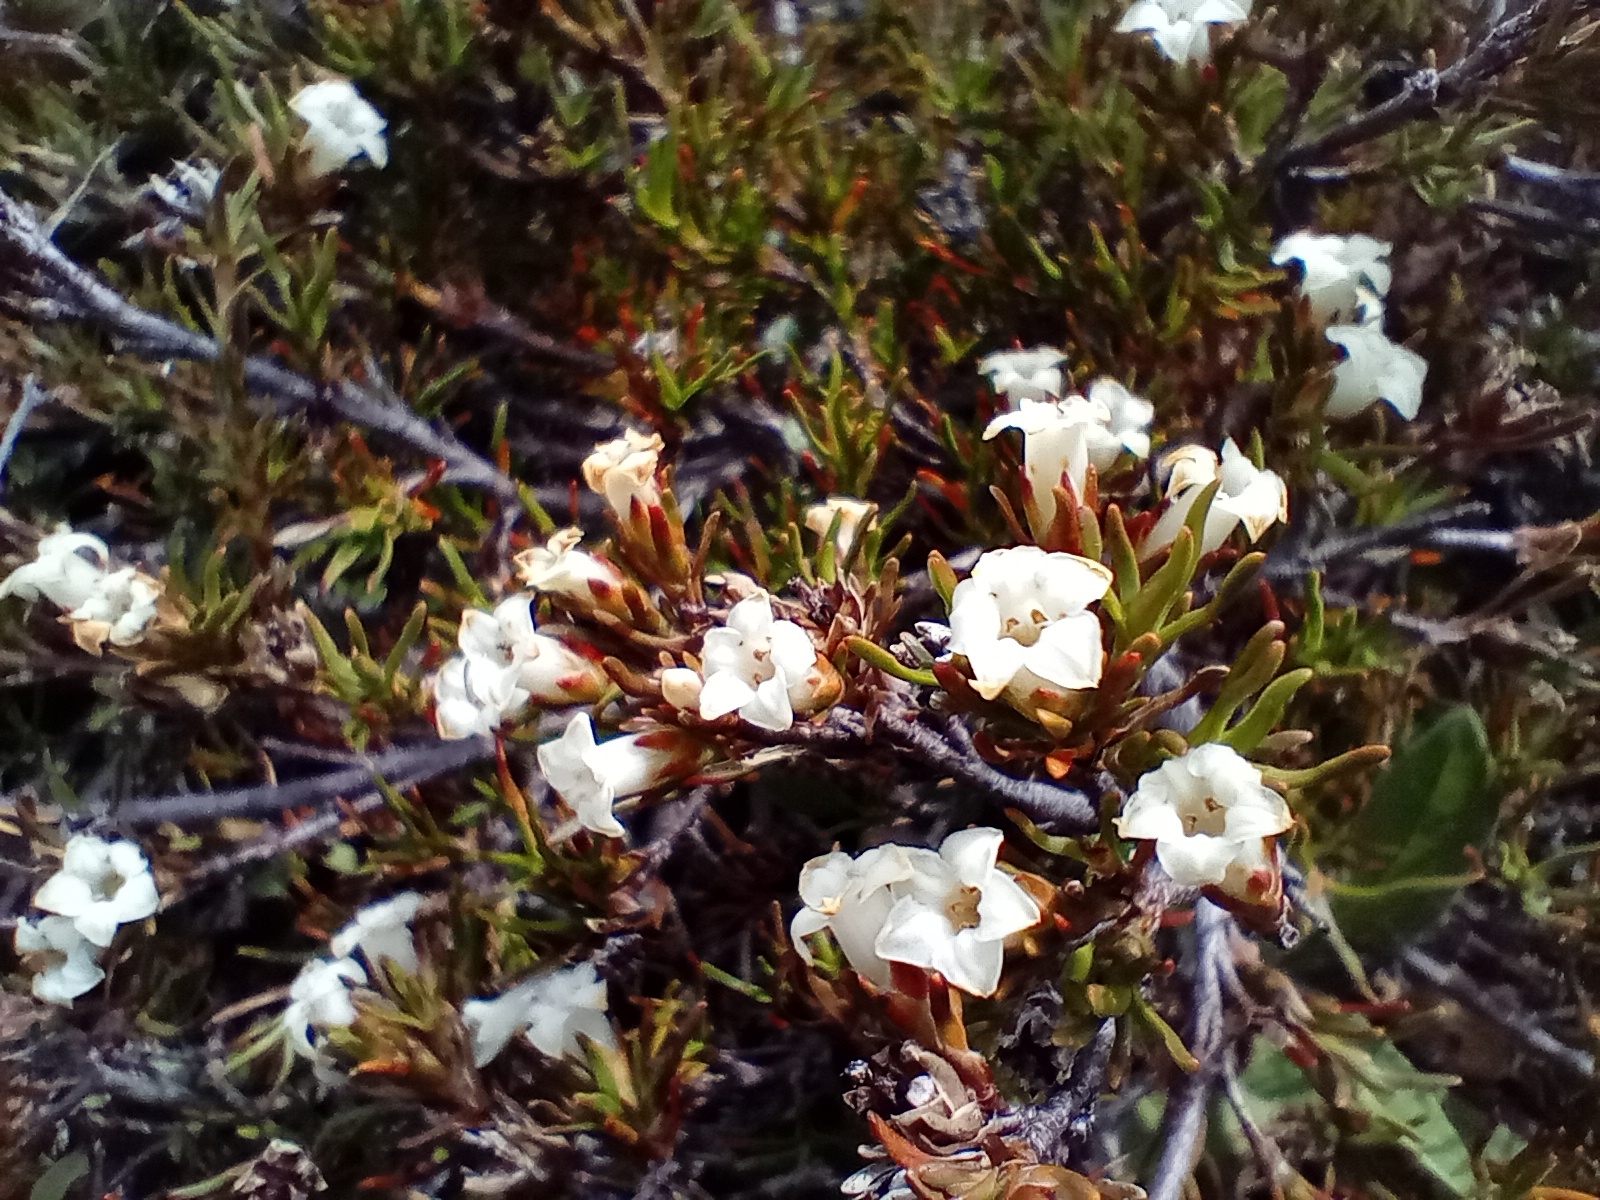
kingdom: Plantae
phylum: Tracheophyta
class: Magnoliopsida
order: Ericales
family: Ericaceae
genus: Dracophyllum
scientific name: Dracophyllum pronum
